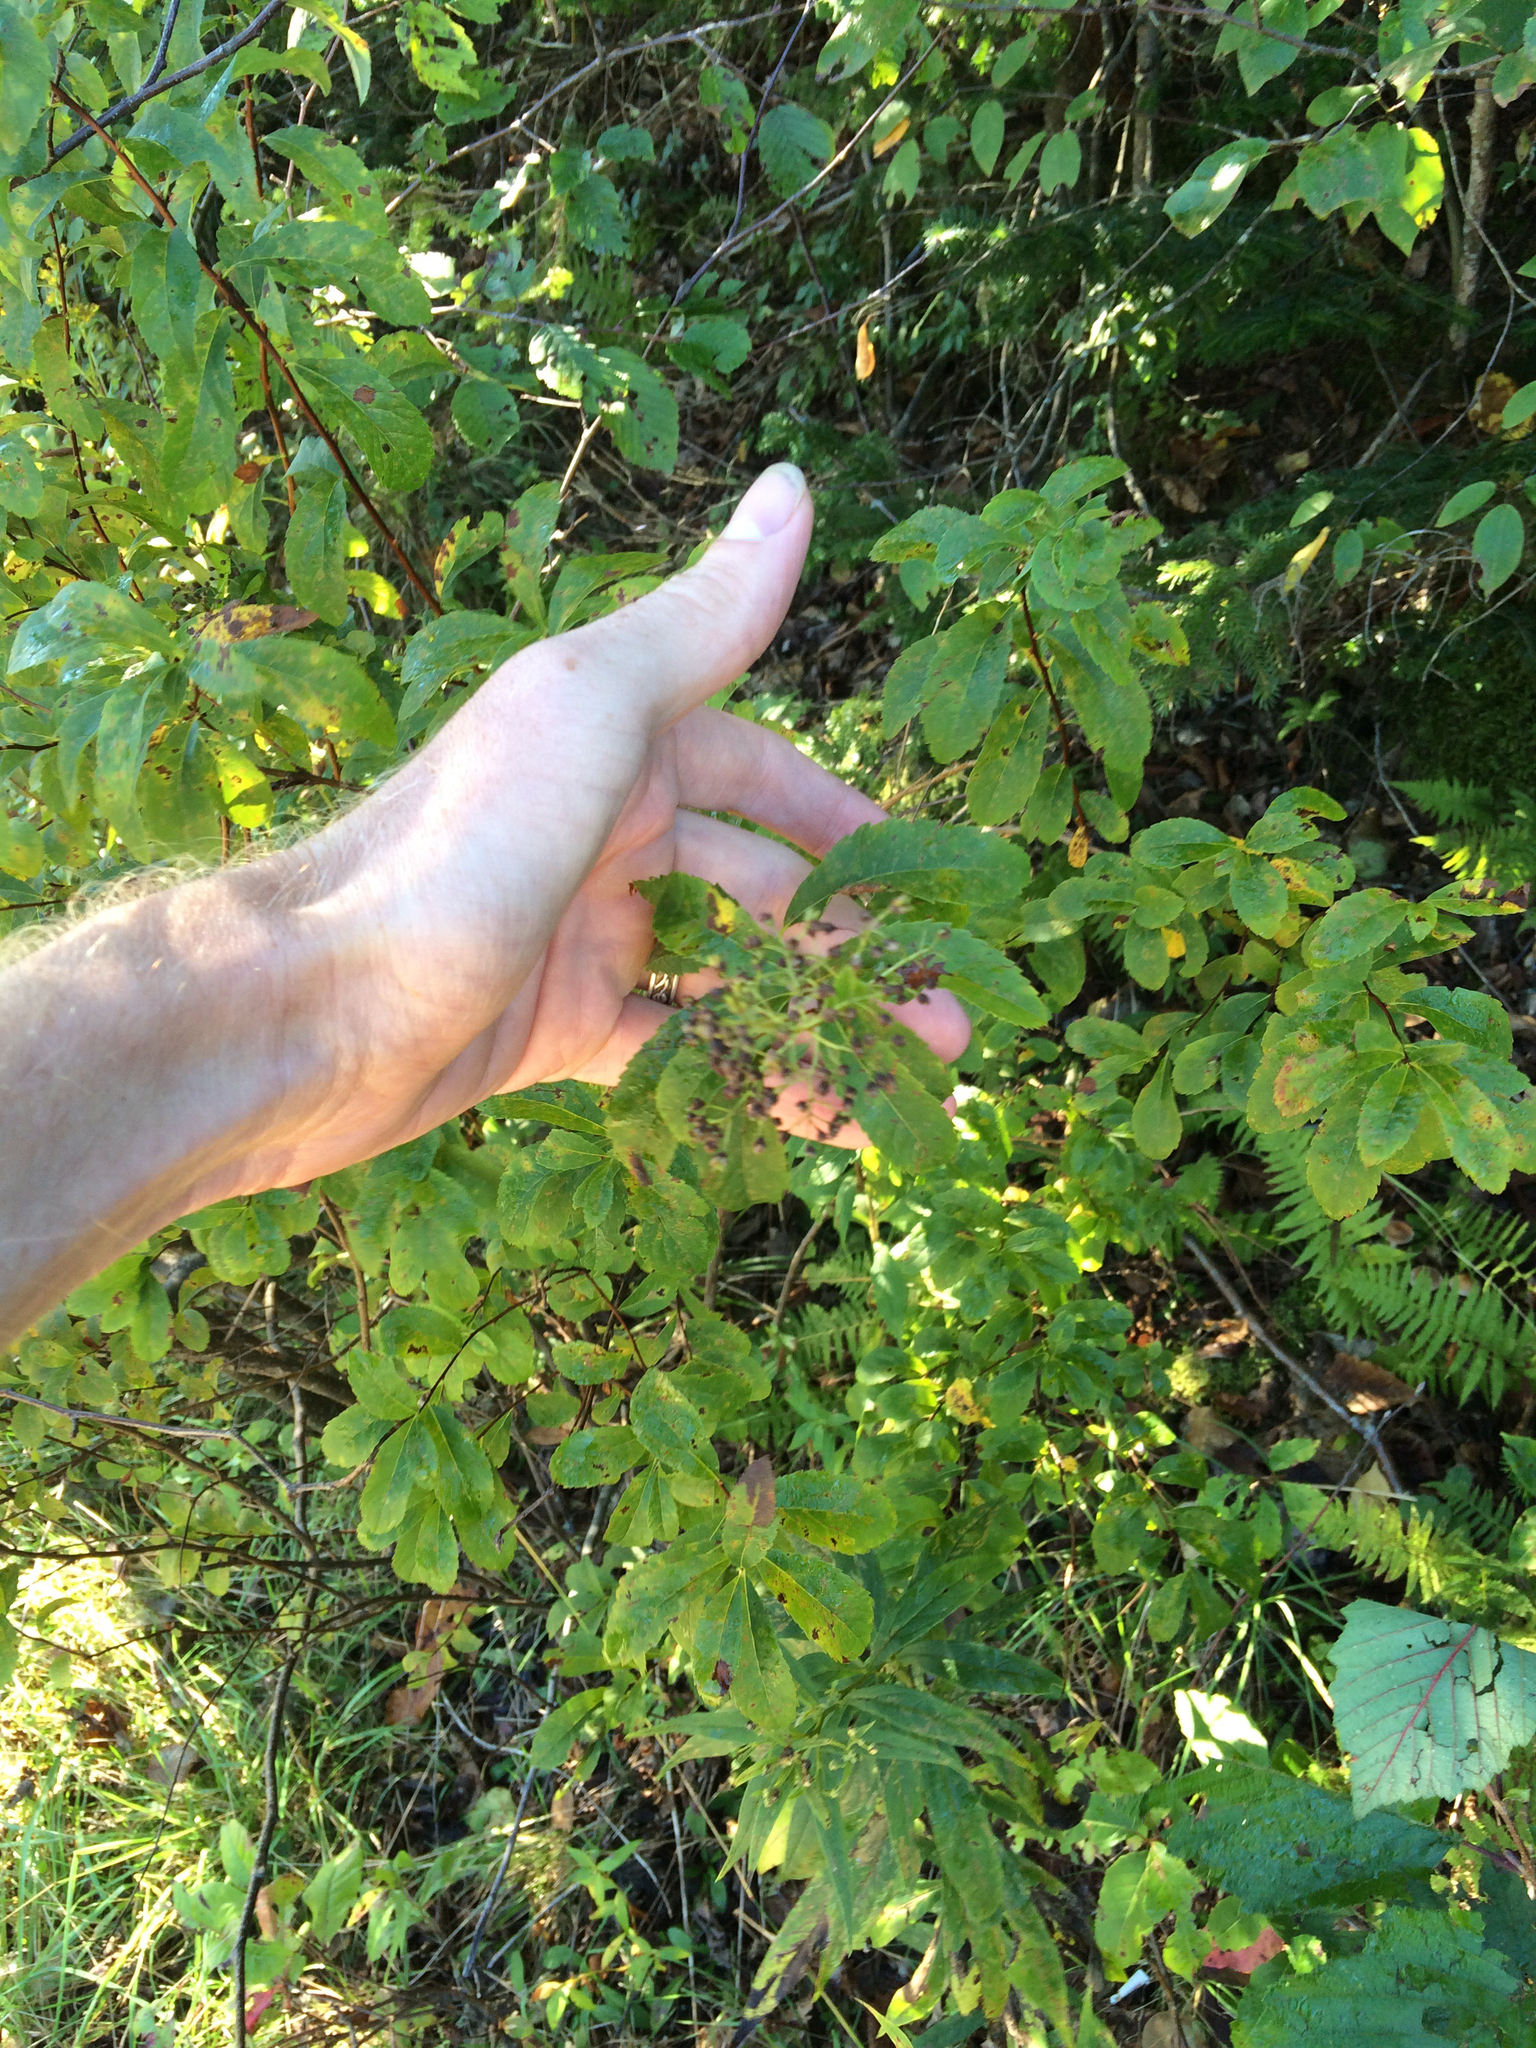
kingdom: Plantae
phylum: Tracheophyta
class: Magnoliopsida
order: Rosales
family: Rosaceae
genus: Spiraea
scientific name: Spiraea alba
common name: Pale bridewort
